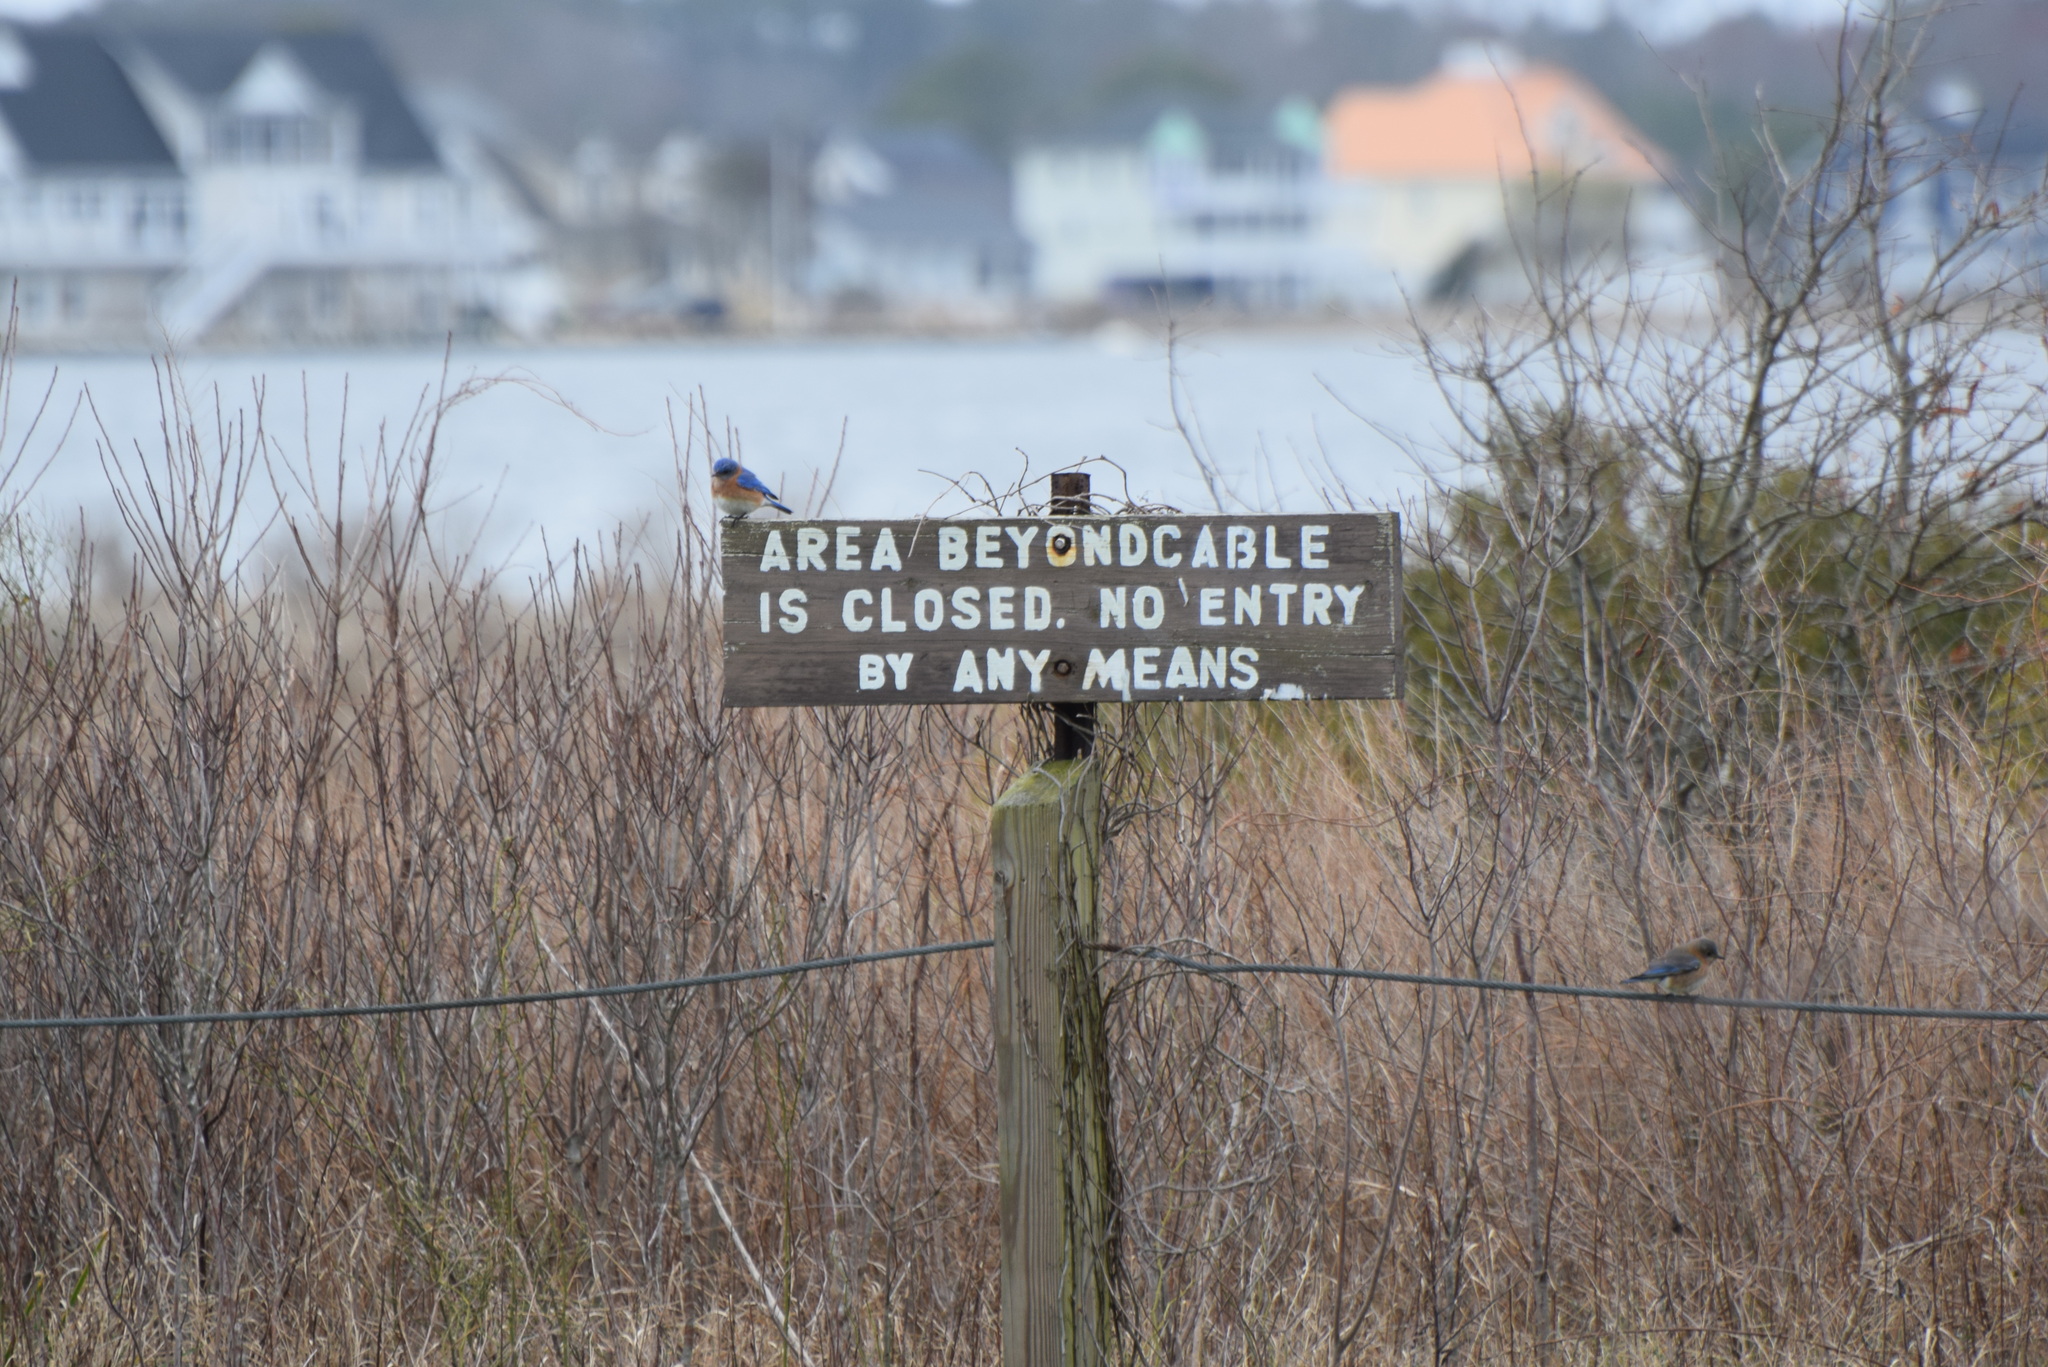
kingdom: Animalia
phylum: Chordata
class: Aves
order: Passeriformes
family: Turdidae
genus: Sialia
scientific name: Sialia sialis
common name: Eastern bluebird
